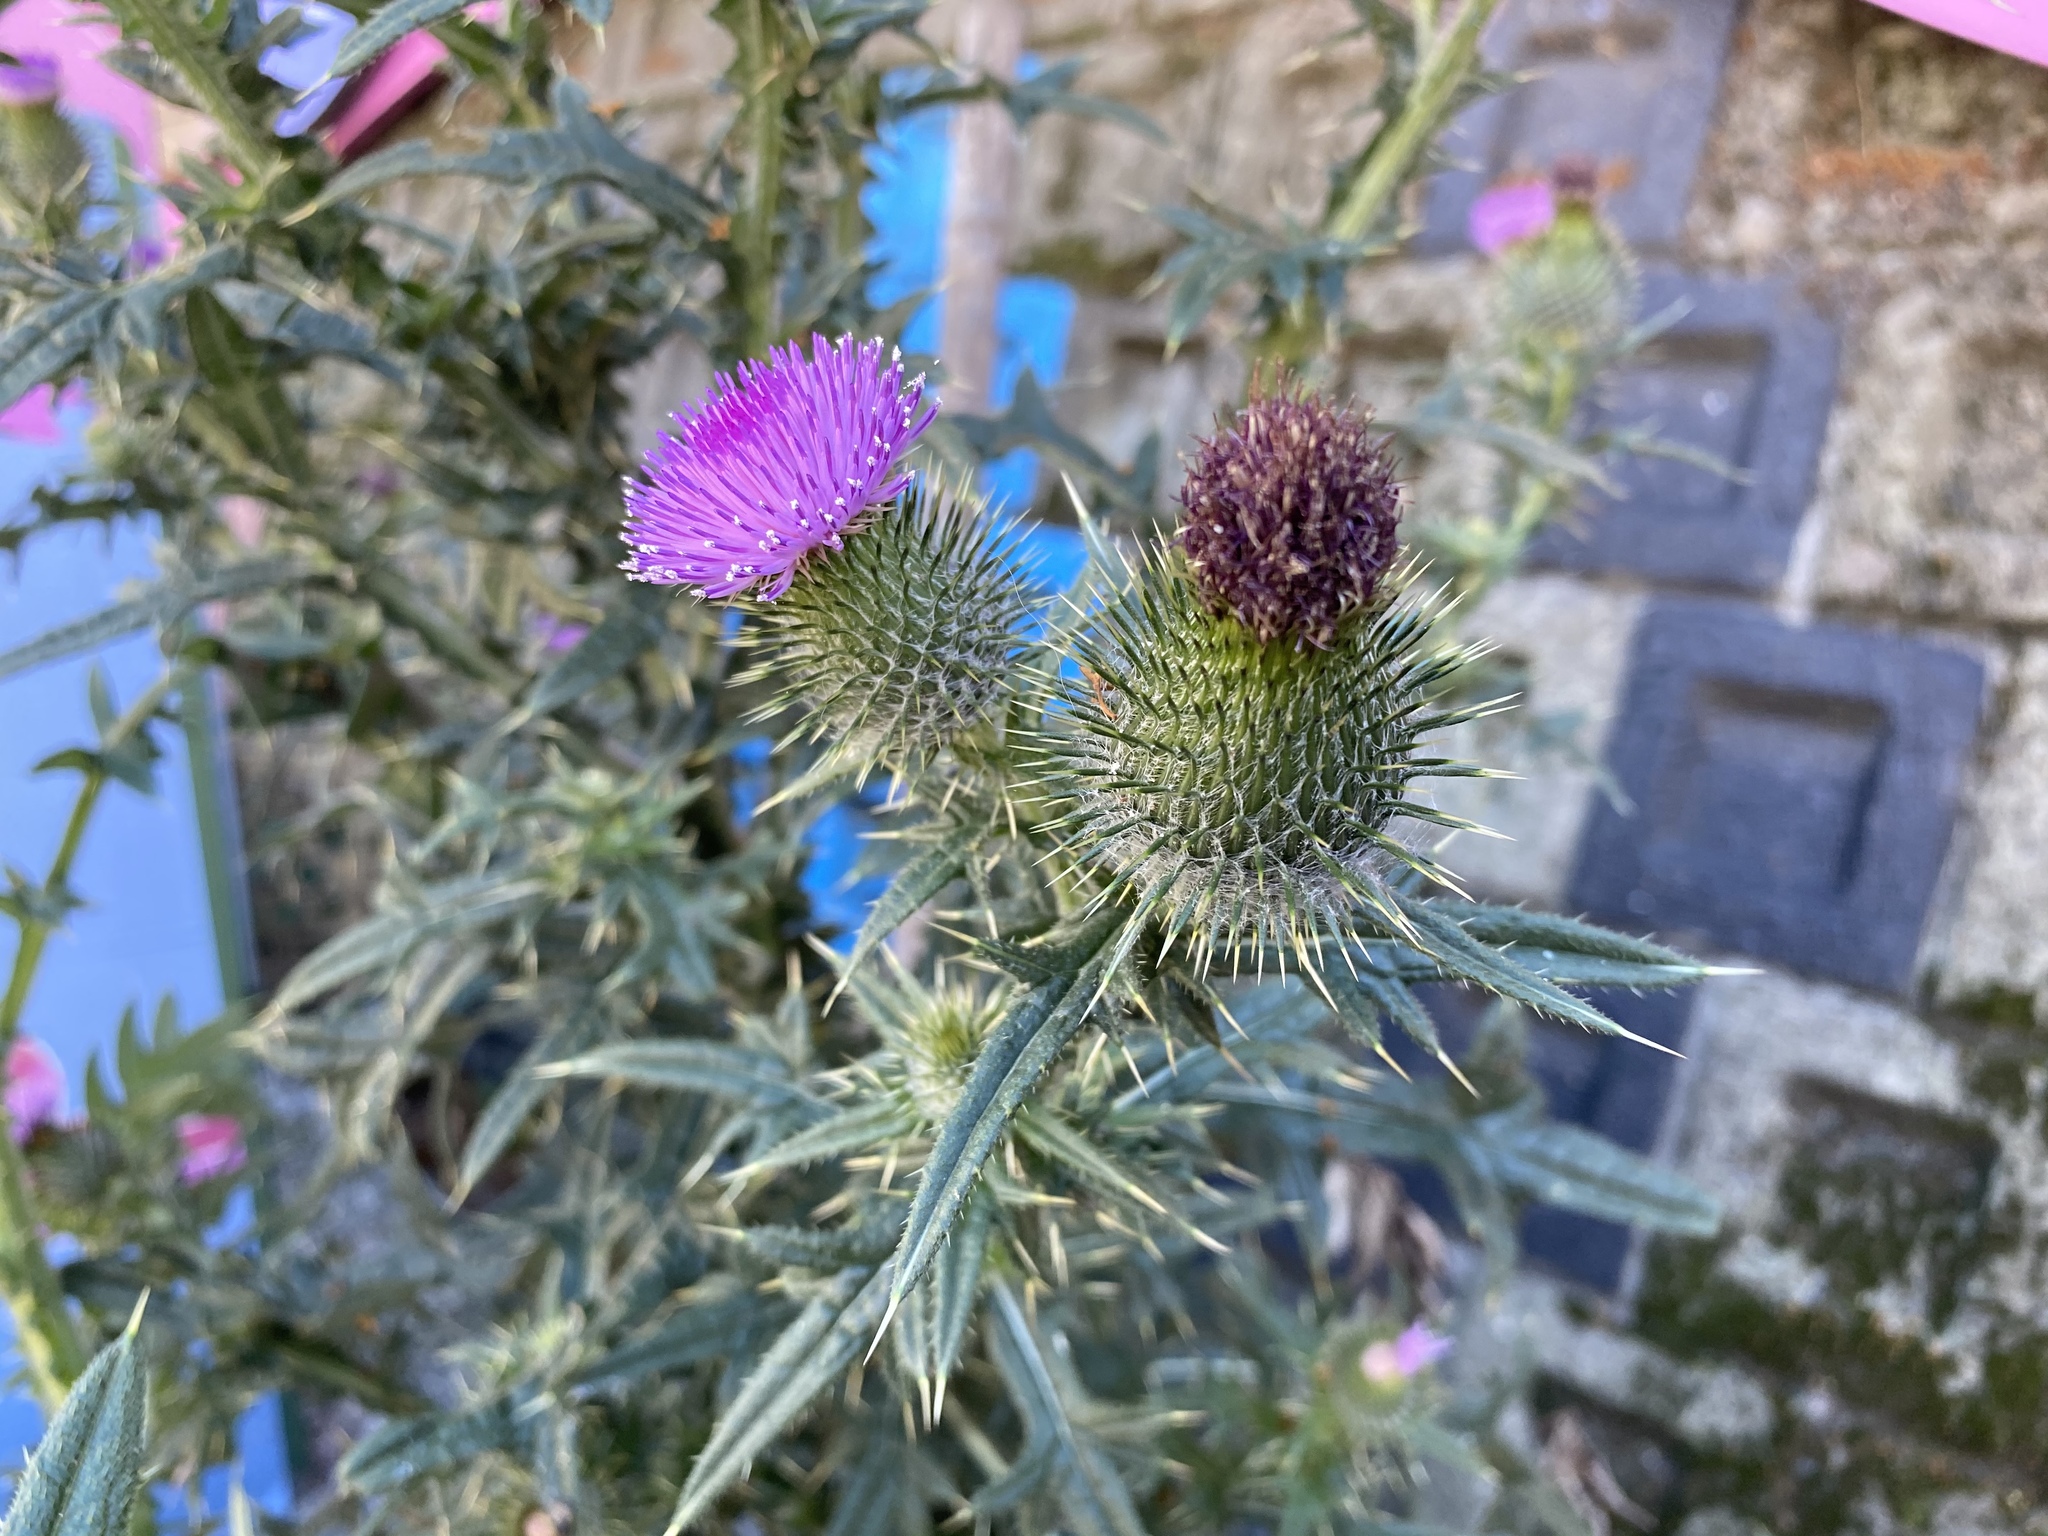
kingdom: Plantae
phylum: Tracheophyta
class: Magnoliopsida
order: Asterales
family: Asteraceae
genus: Cirsium
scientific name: Cirsium vulgare
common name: Bull thistle
